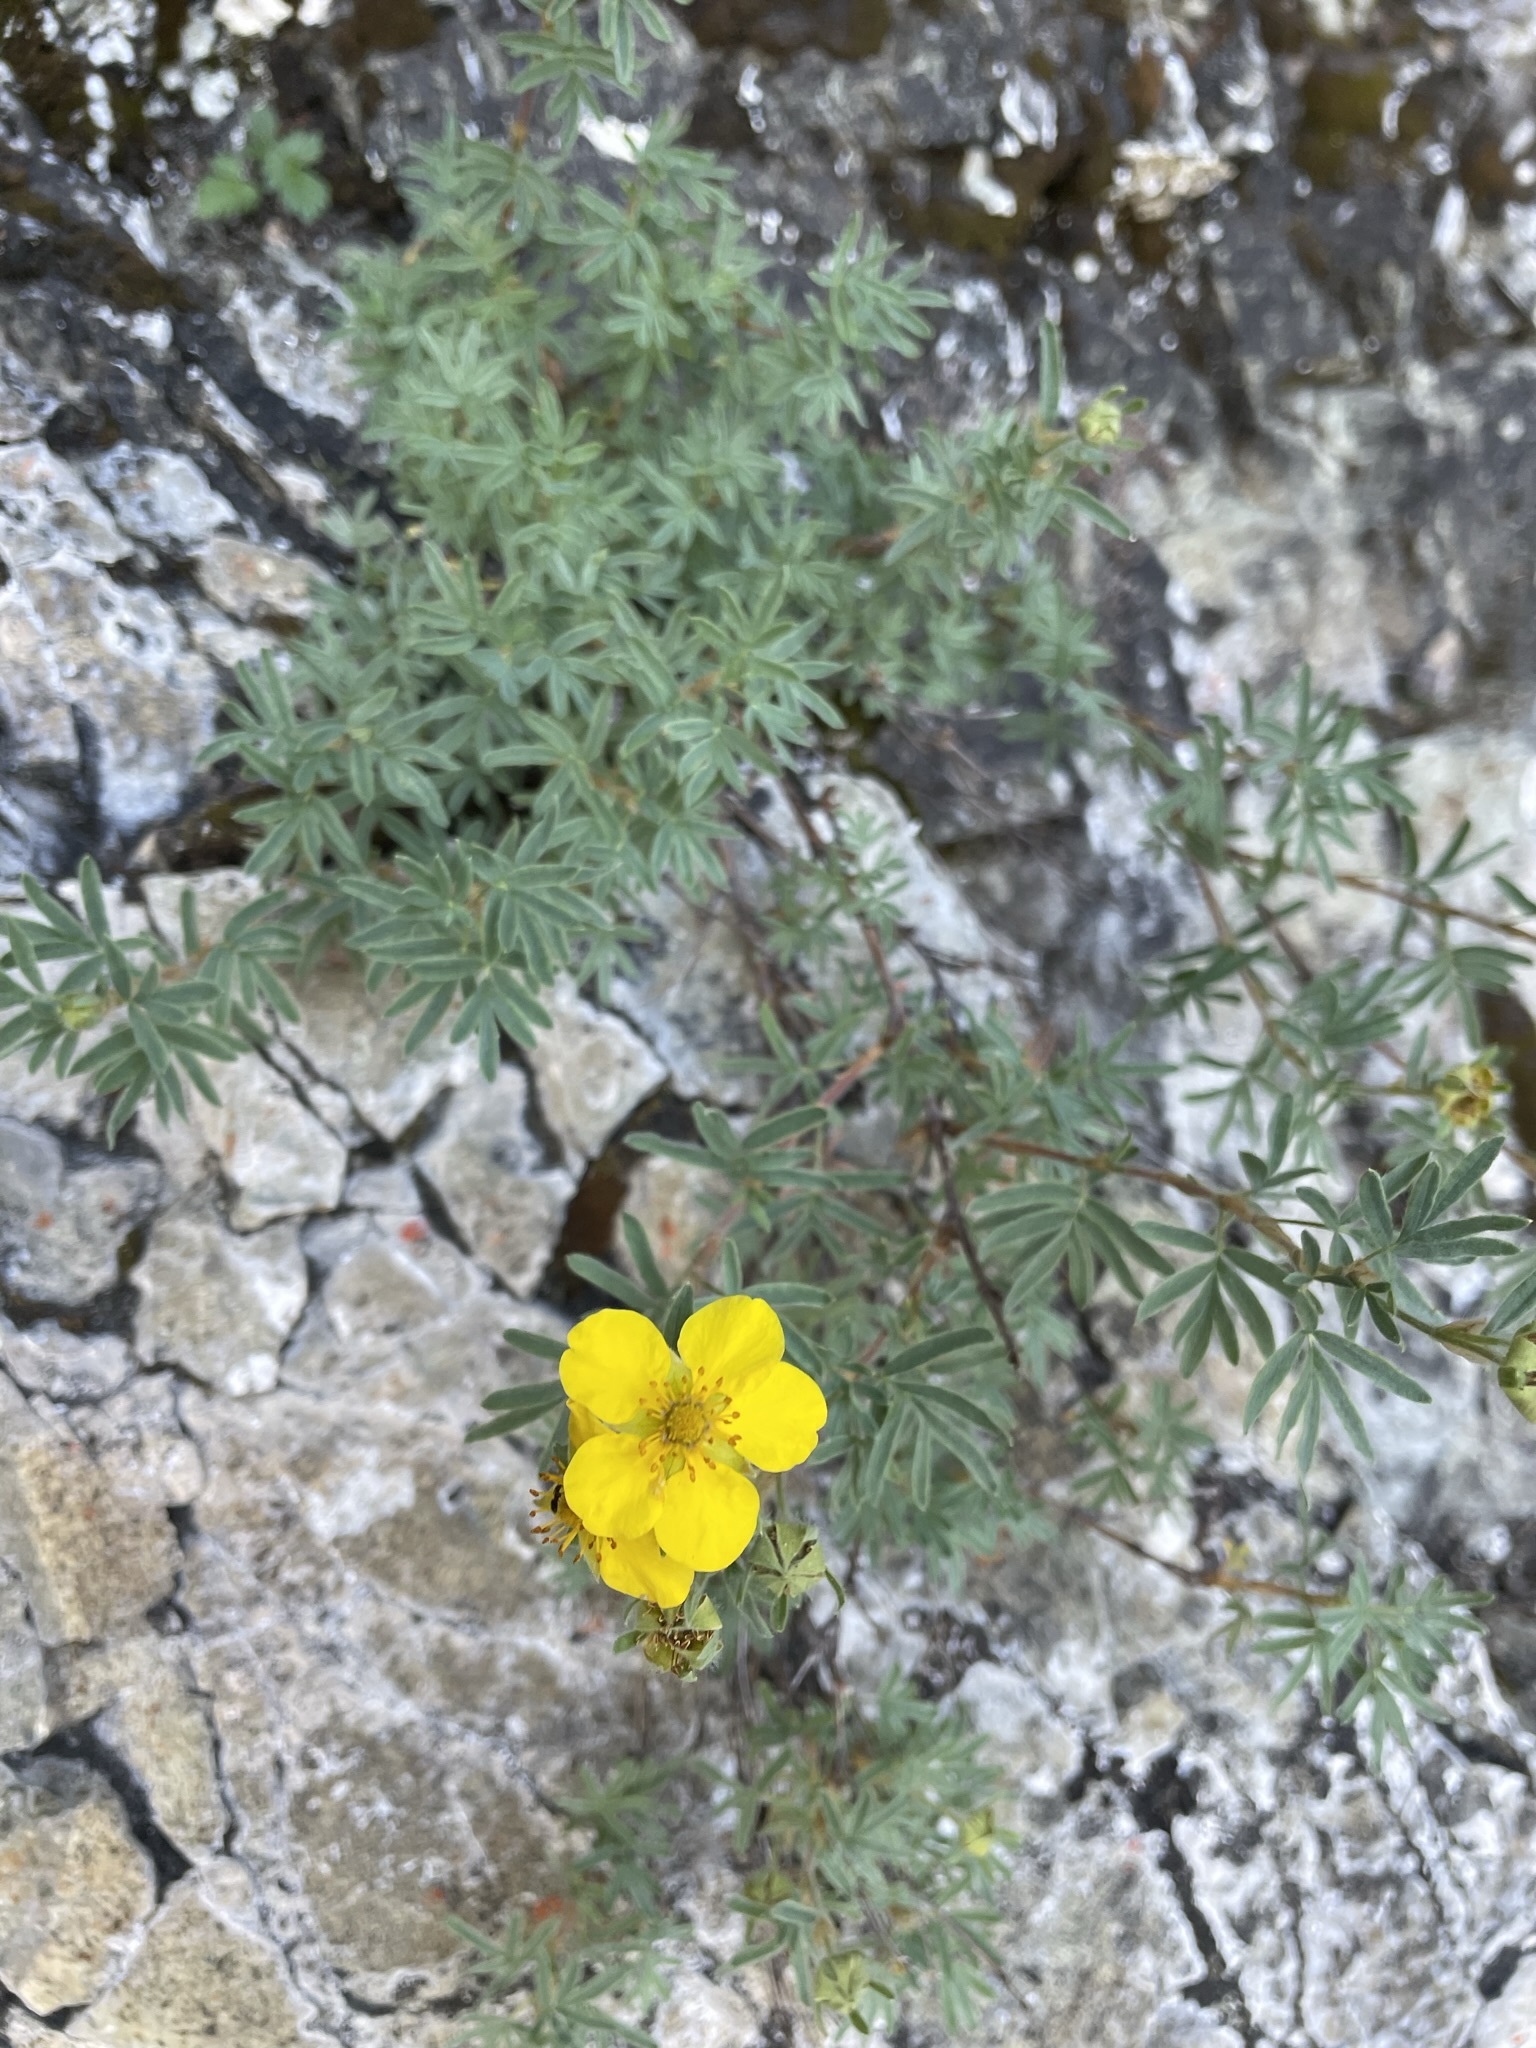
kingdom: Plantae
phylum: Tracheophyta
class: Magnoliopsida
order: Rosales
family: Rosaceae
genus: Dasiphora
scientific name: Dasiphora fruticosa
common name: Shrubby cinquefoil
